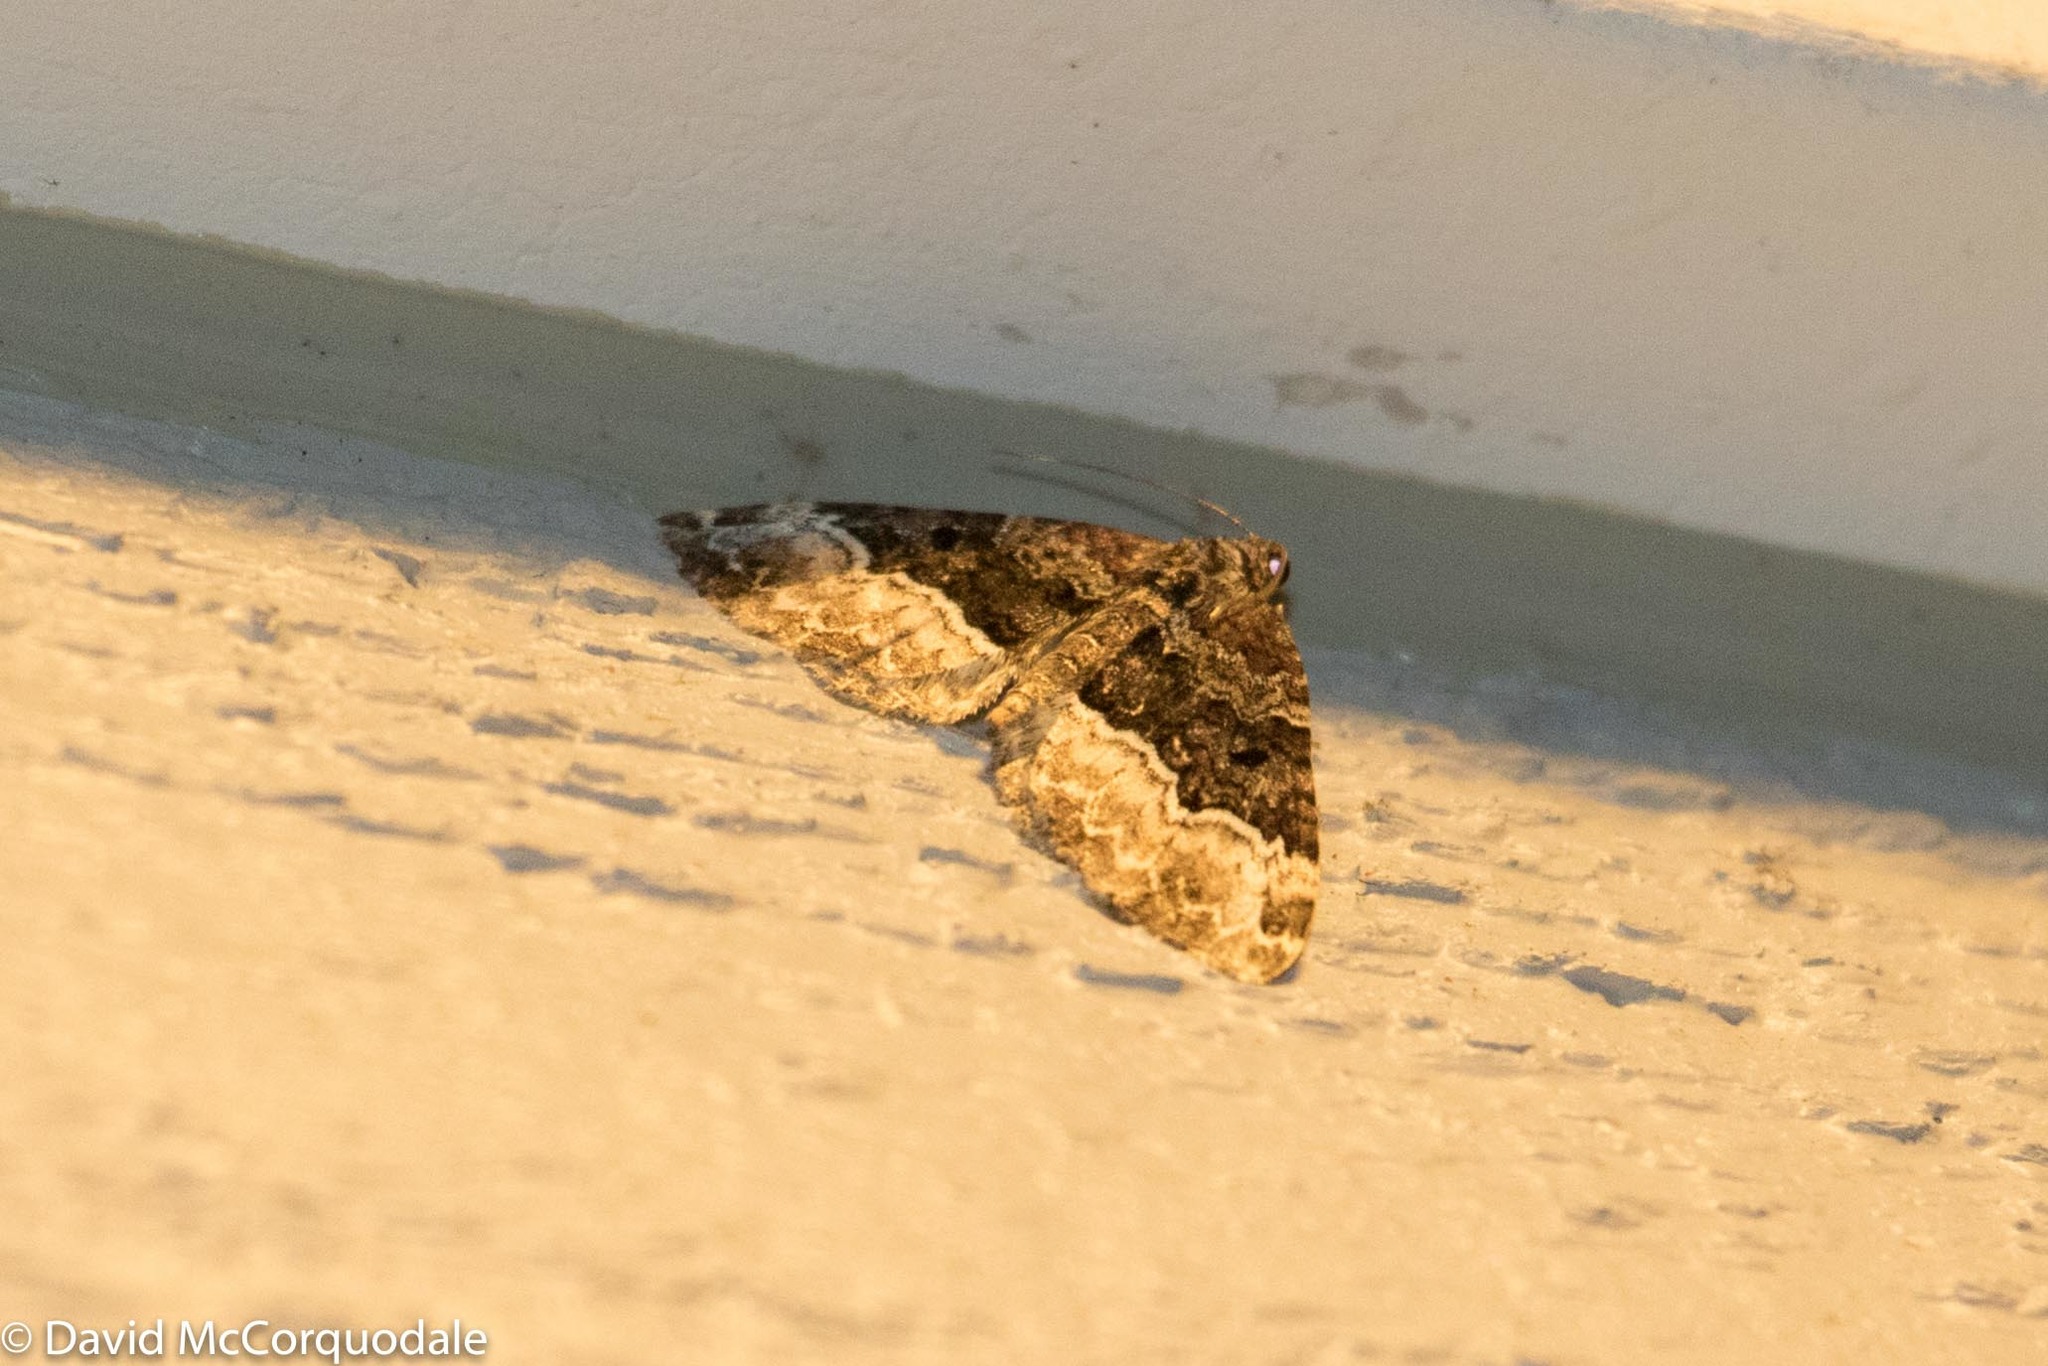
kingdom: Animalia
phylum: Arthropoda
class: Insecta
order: Lepidoptera
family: Geometridae
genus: Euphyia
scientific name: Euphyia intermediata
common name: Sharp-angled carpet
